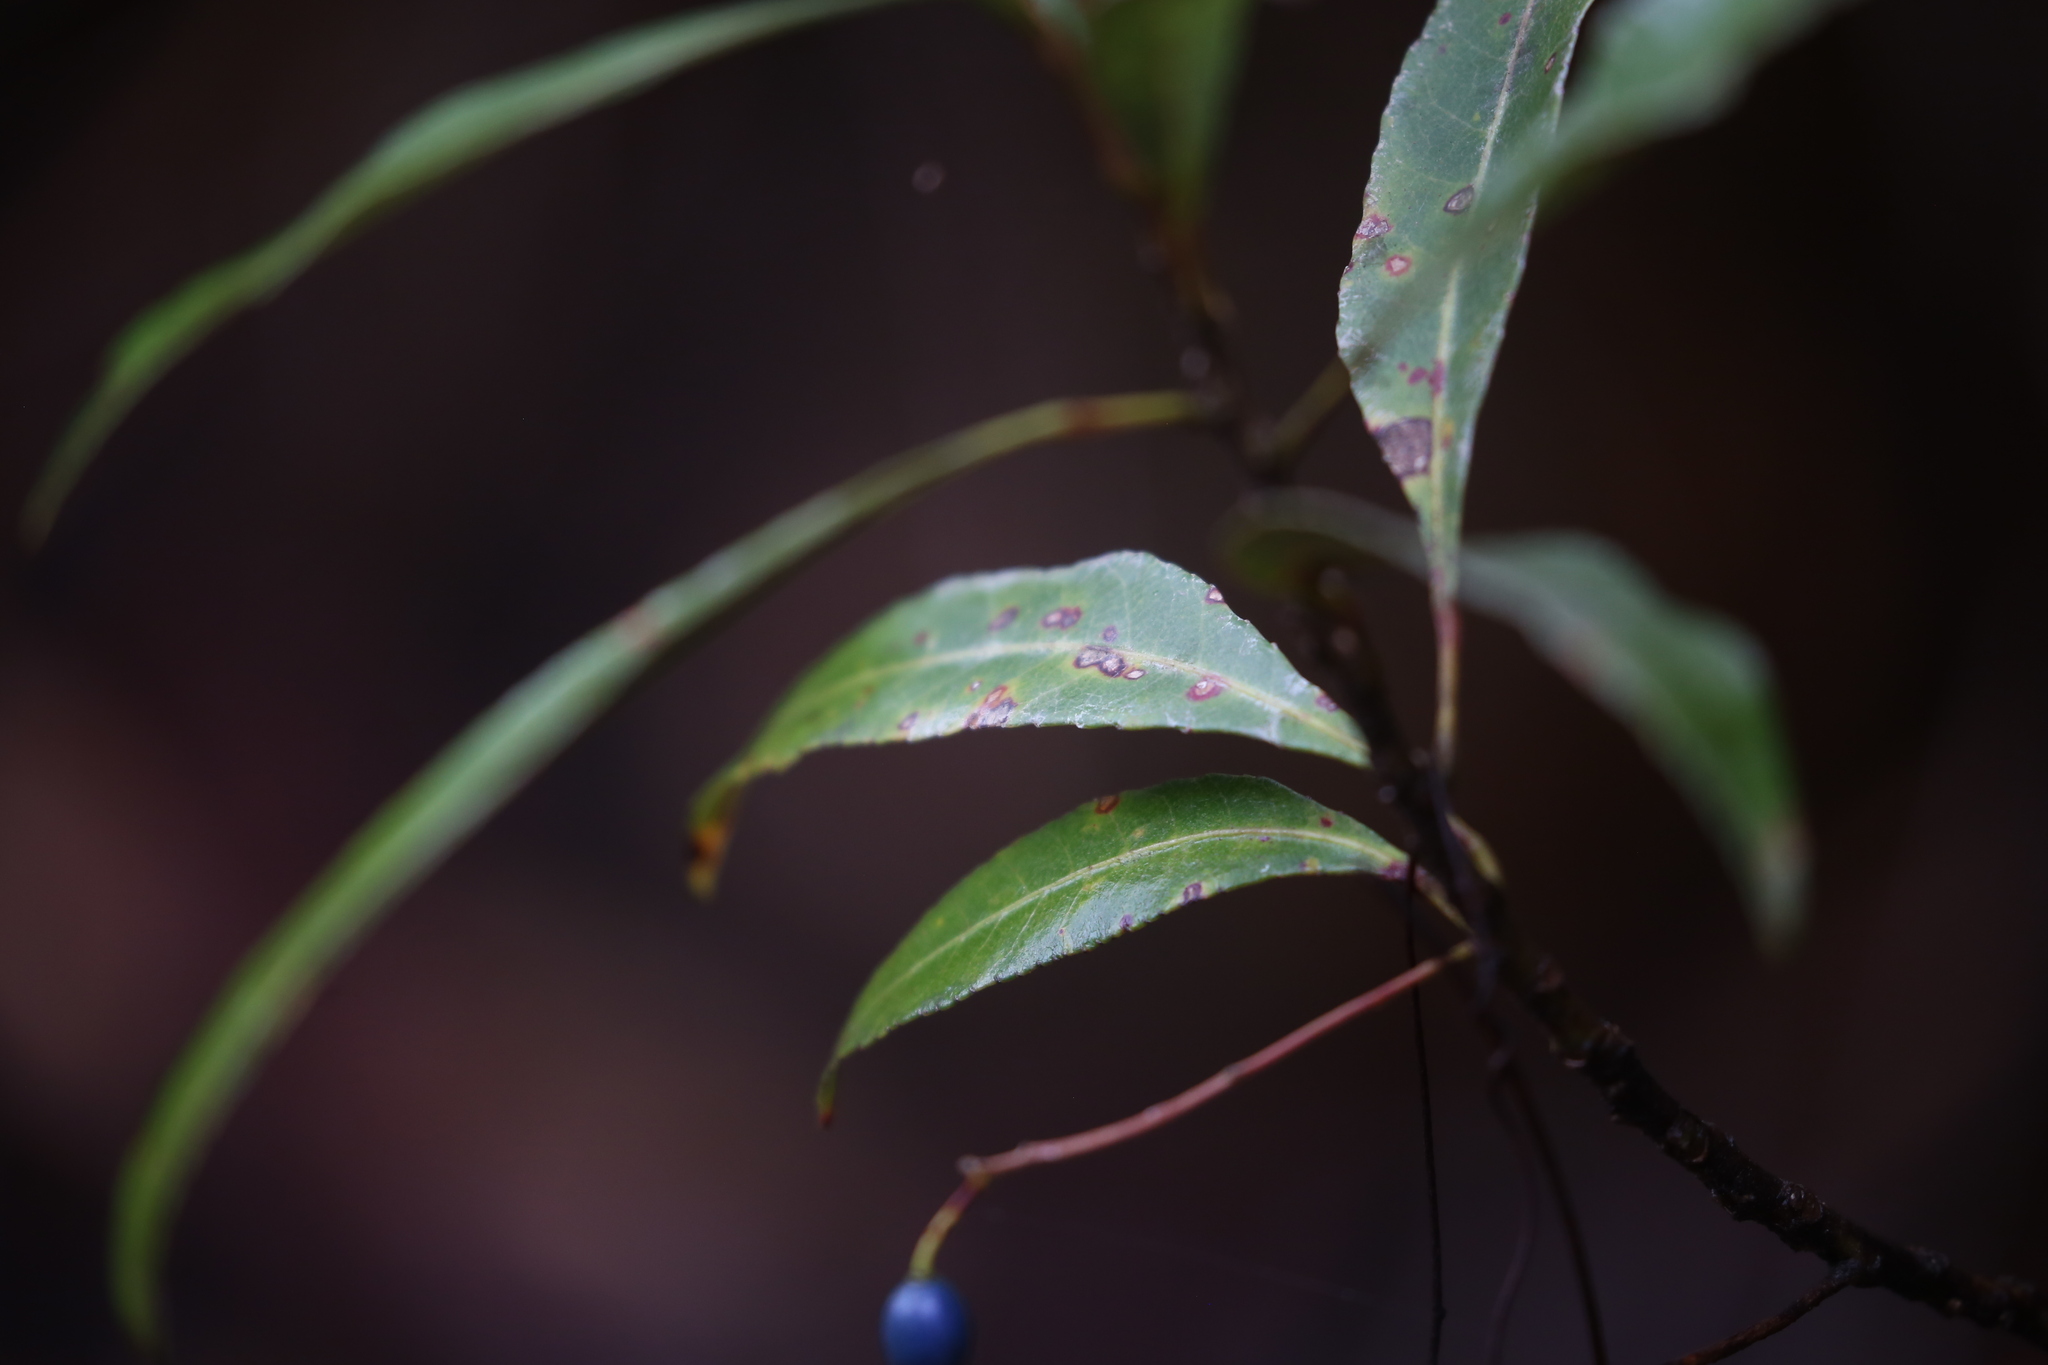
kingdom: Plantae
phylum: Tracheophyta
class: Magnoliopsida
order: Oxalidales
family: Elaeocarpaceae
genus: Elaeocarpus
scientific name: Elaeocarpus reticulatus
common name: Ash quandong
